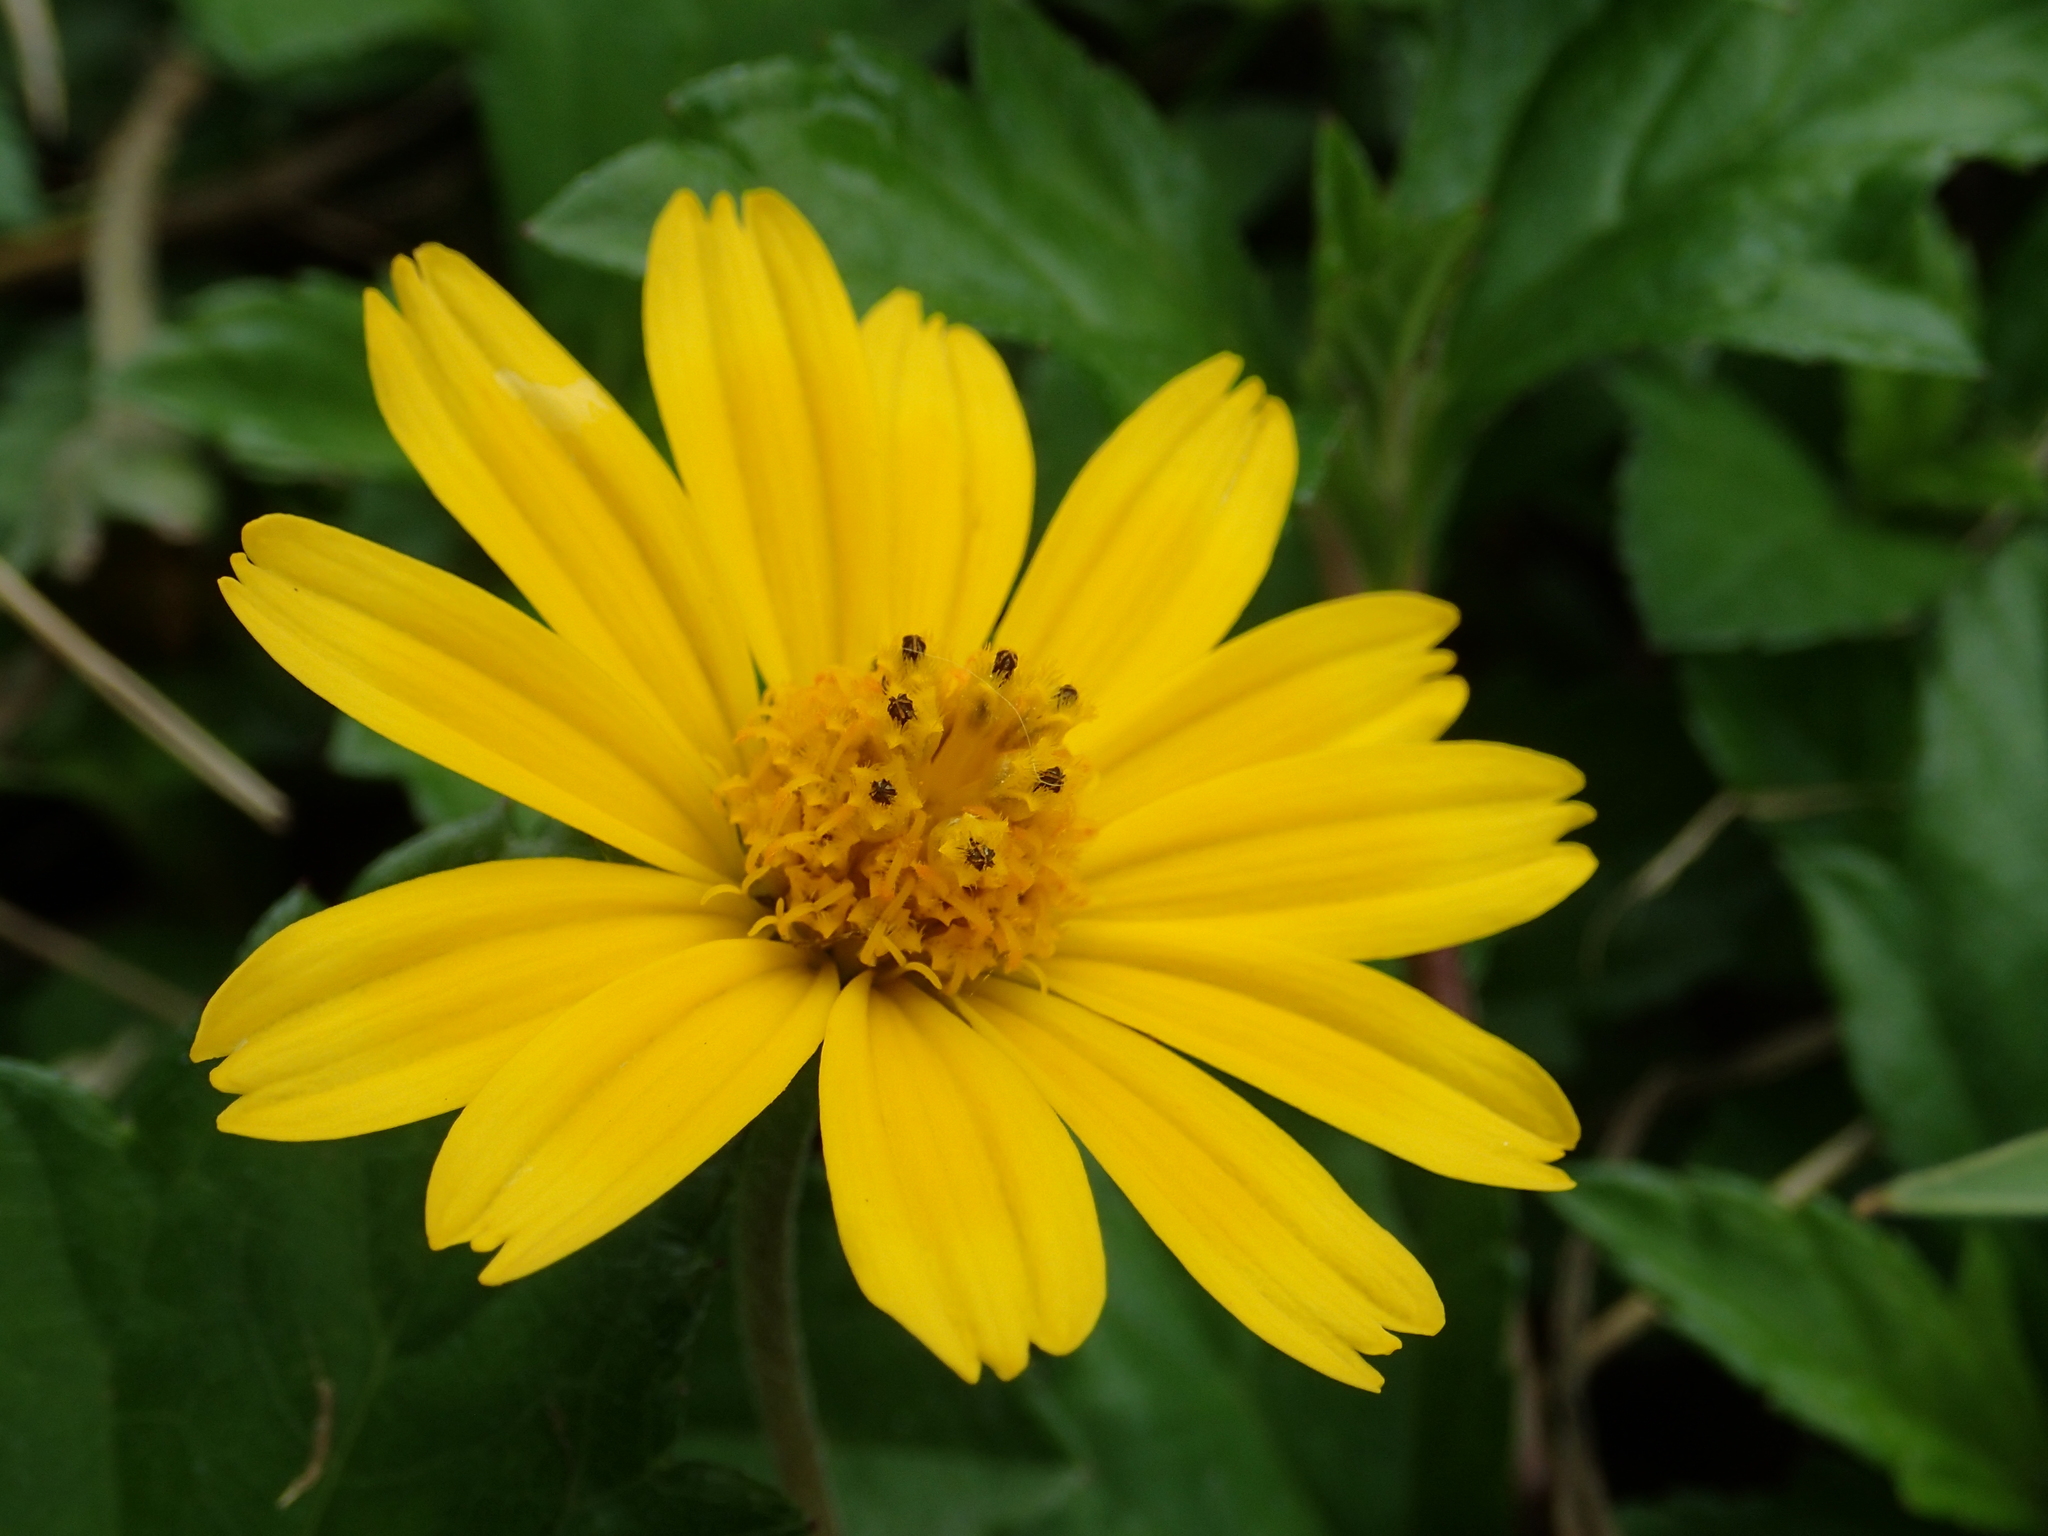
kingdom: Plantae
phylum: Tracheophyta
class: Magnoliopsida
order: Asterales
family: Asteraceae
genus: Sphagneticola
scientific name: Sphagneticola trilobata
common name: Bay biscayne creeping-oxeye
